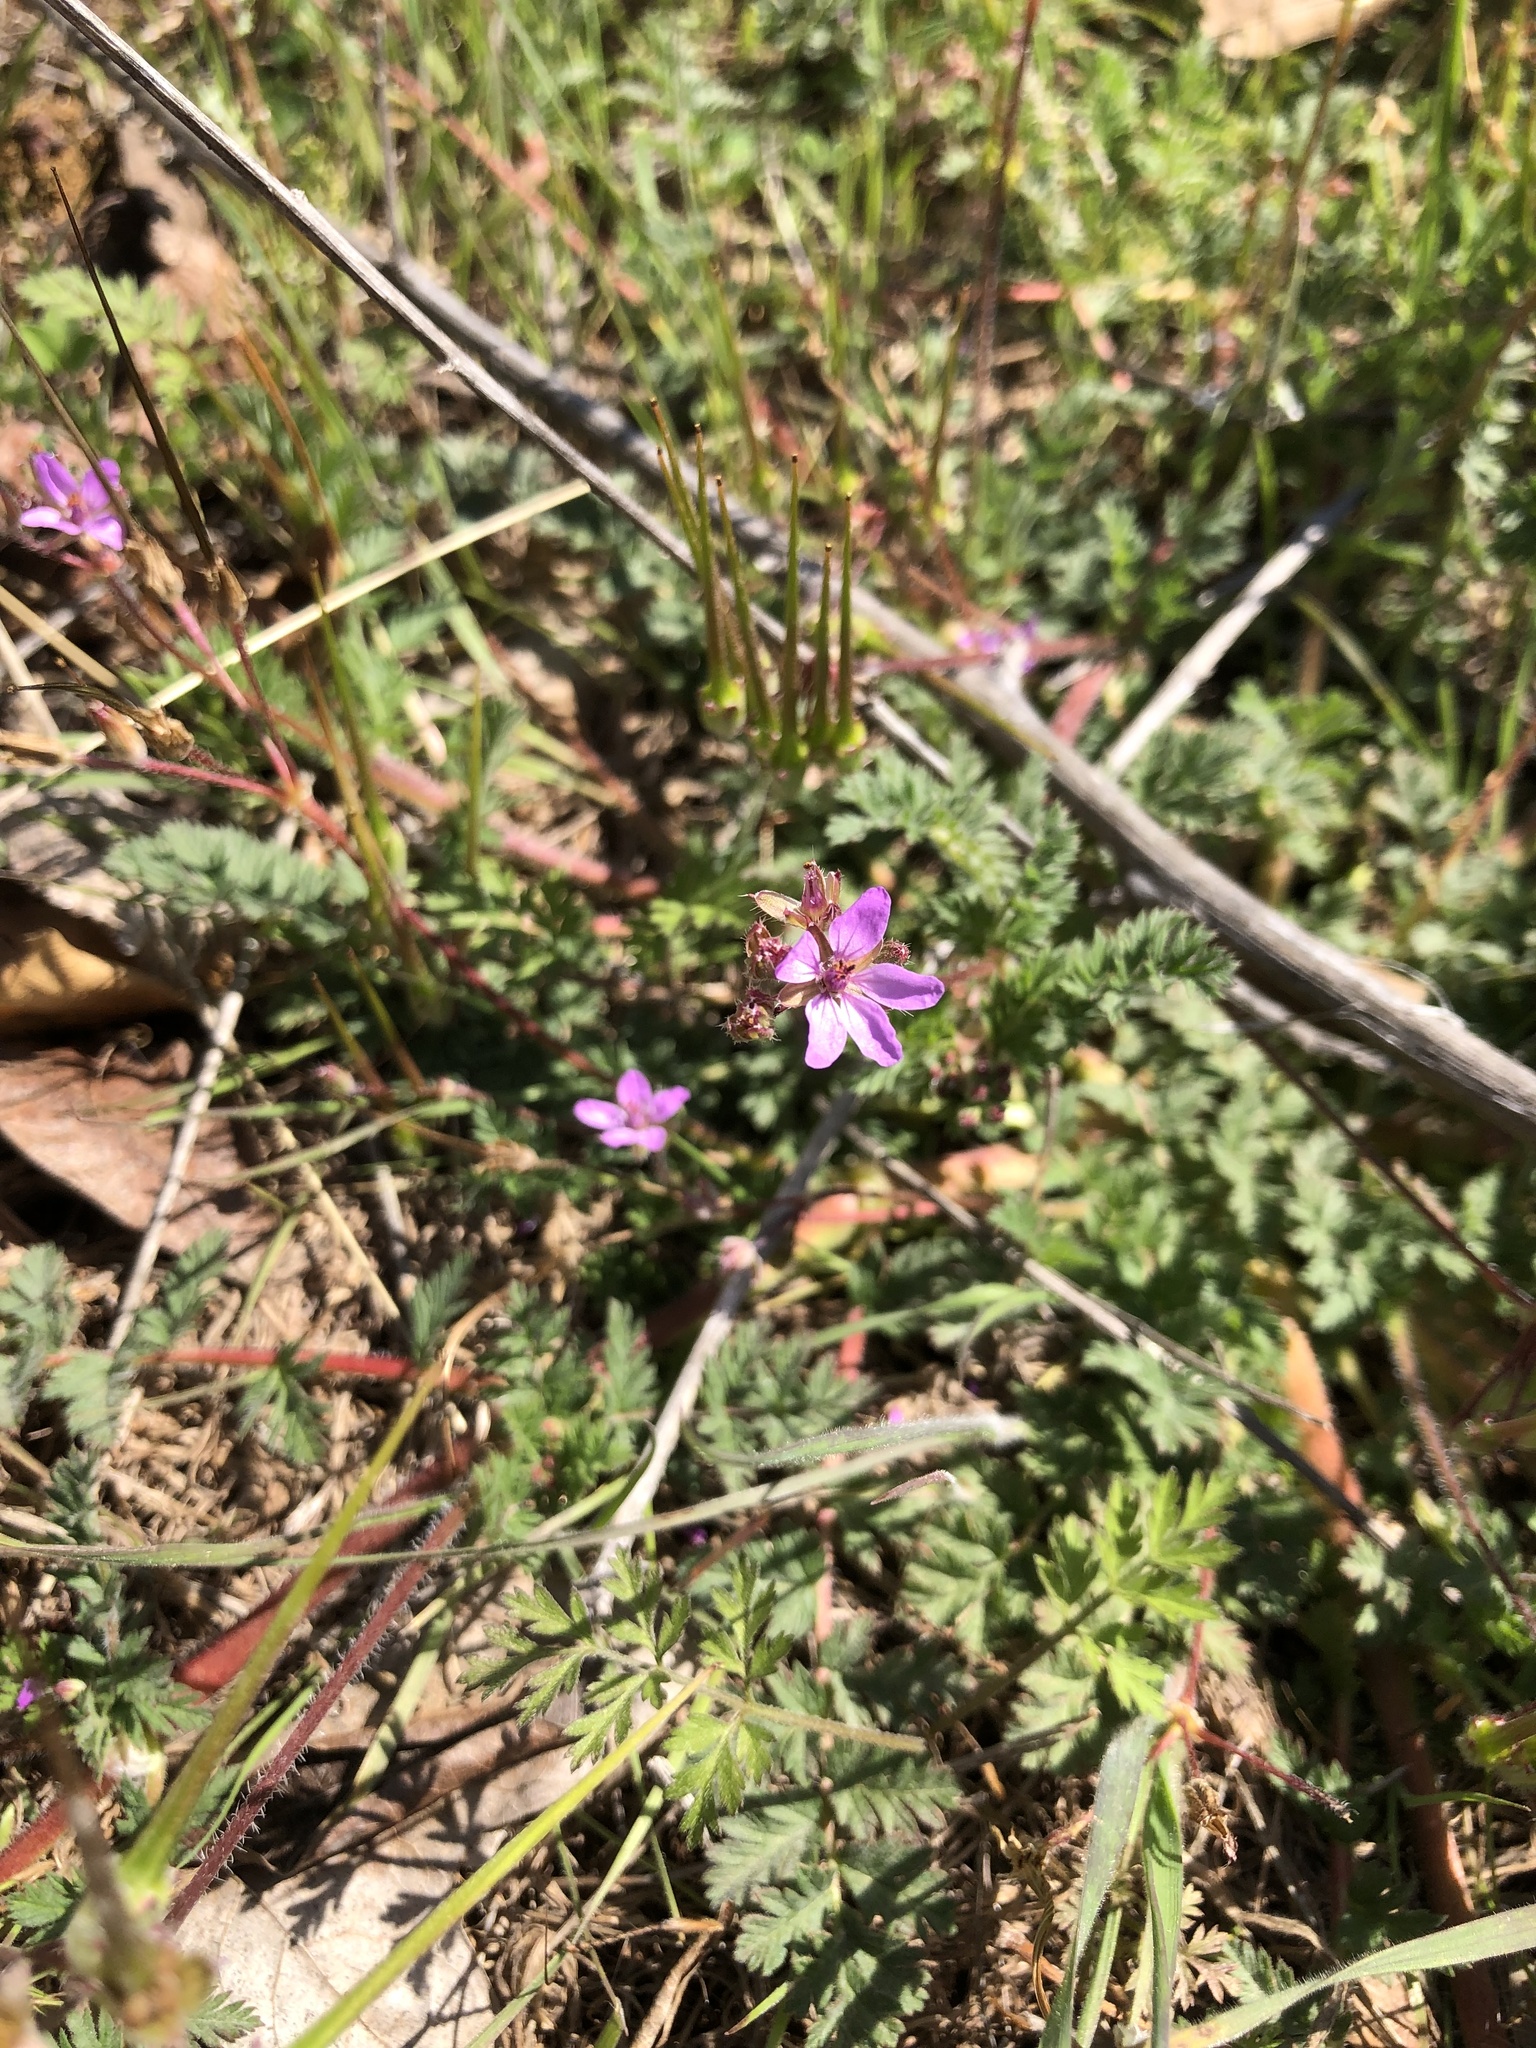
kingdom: Plantae
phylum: Tracheophyta
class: Magnoliopsida
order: Geraniales
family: Geraniaceae
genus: Erodium
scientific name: Erodium cicutarium
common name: Common stork's-bill
